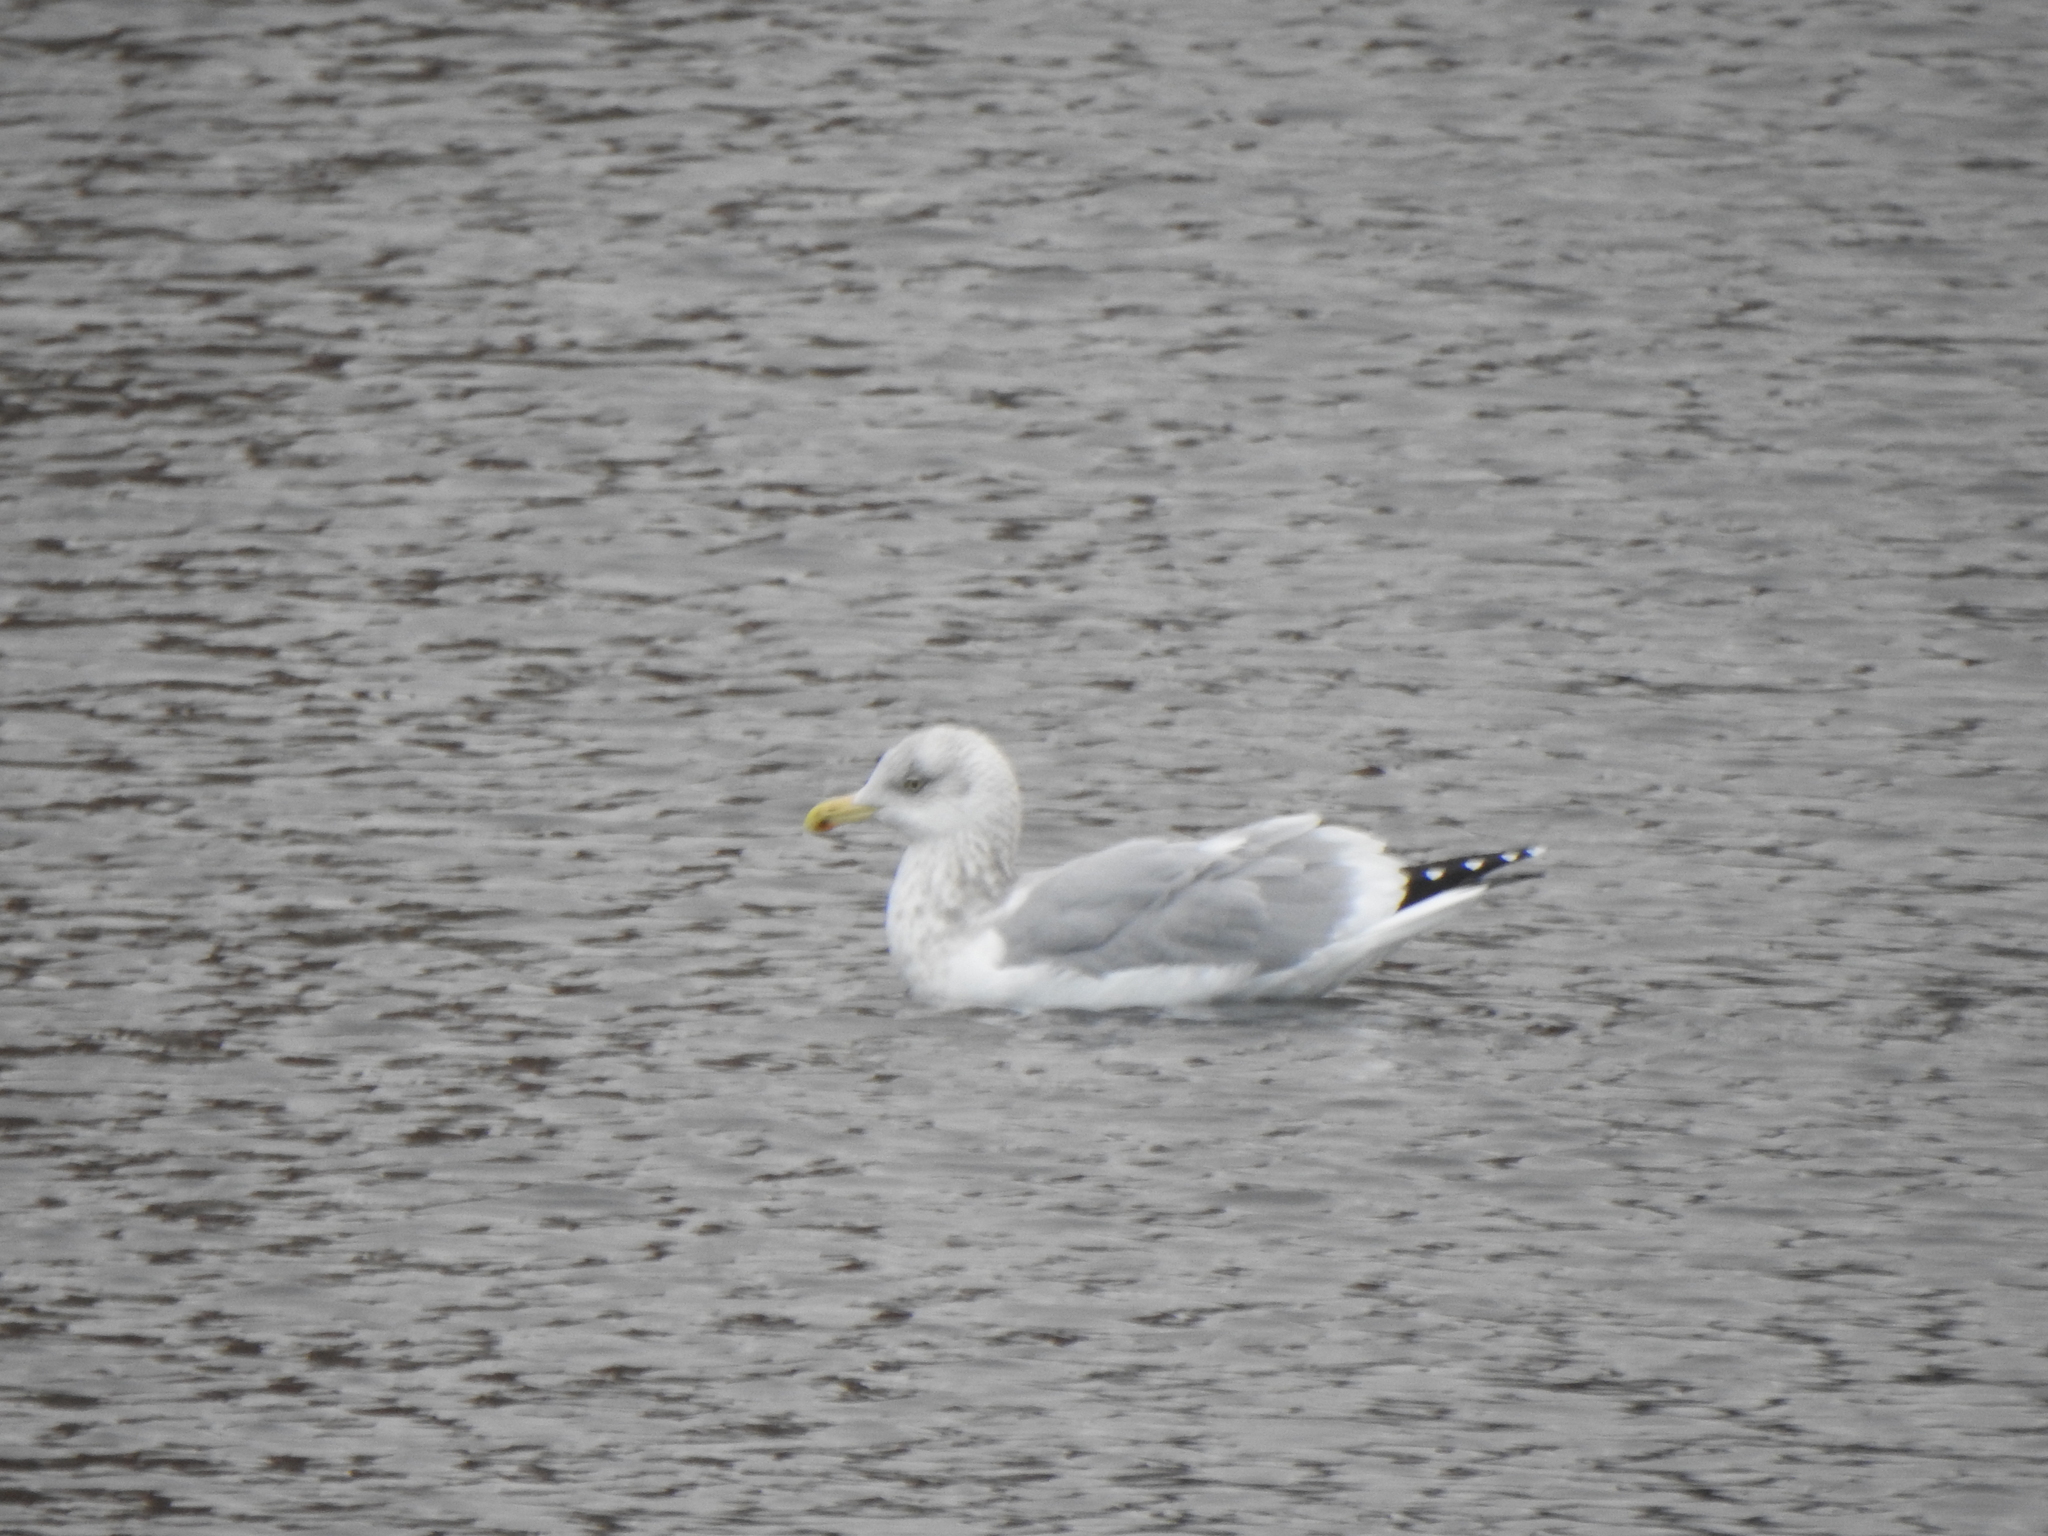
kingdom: Animalia
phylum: Chordata
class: Aves
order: Charadriiformes
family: Laridae
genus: Larus
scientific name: Larus argentatus
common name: Herring gull
